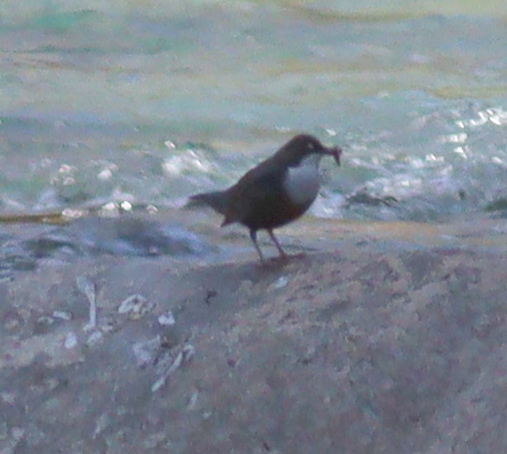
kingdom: Animalia
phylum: Chordata
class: Aves
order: Passeriformes
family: Cinclidae
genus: Cinclus
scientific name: Cinclus cinclus
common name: White-throated dipper
